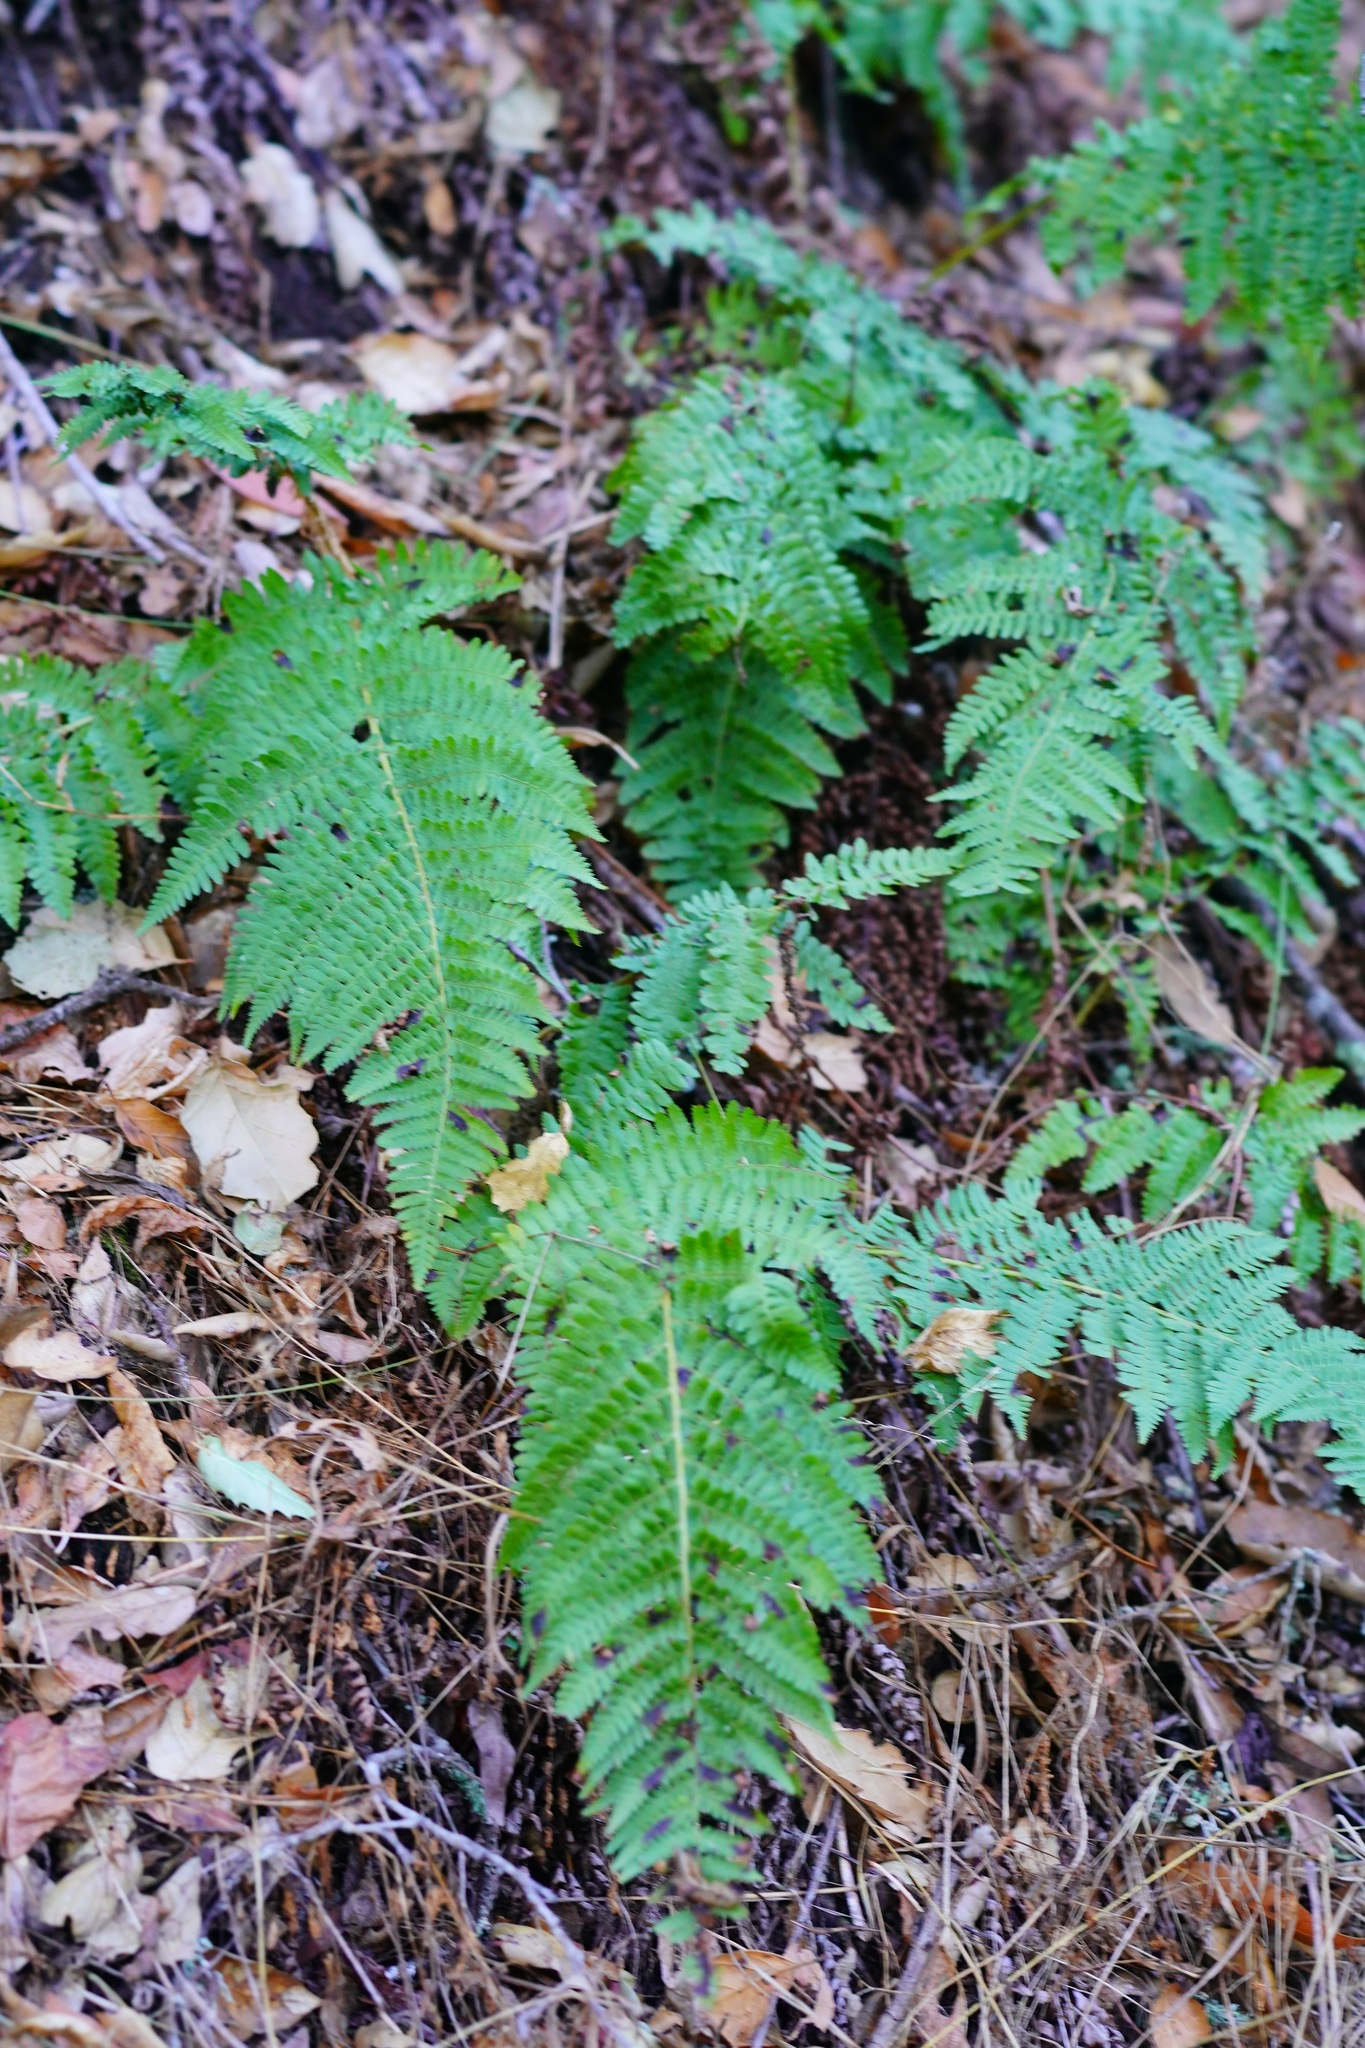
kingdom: Plantae
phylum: Tracheophyta
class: Polypodiopsida
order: Polypodiales
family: Dryopteridaceae
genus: Dryopteris
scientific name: Dryopteris arguta
